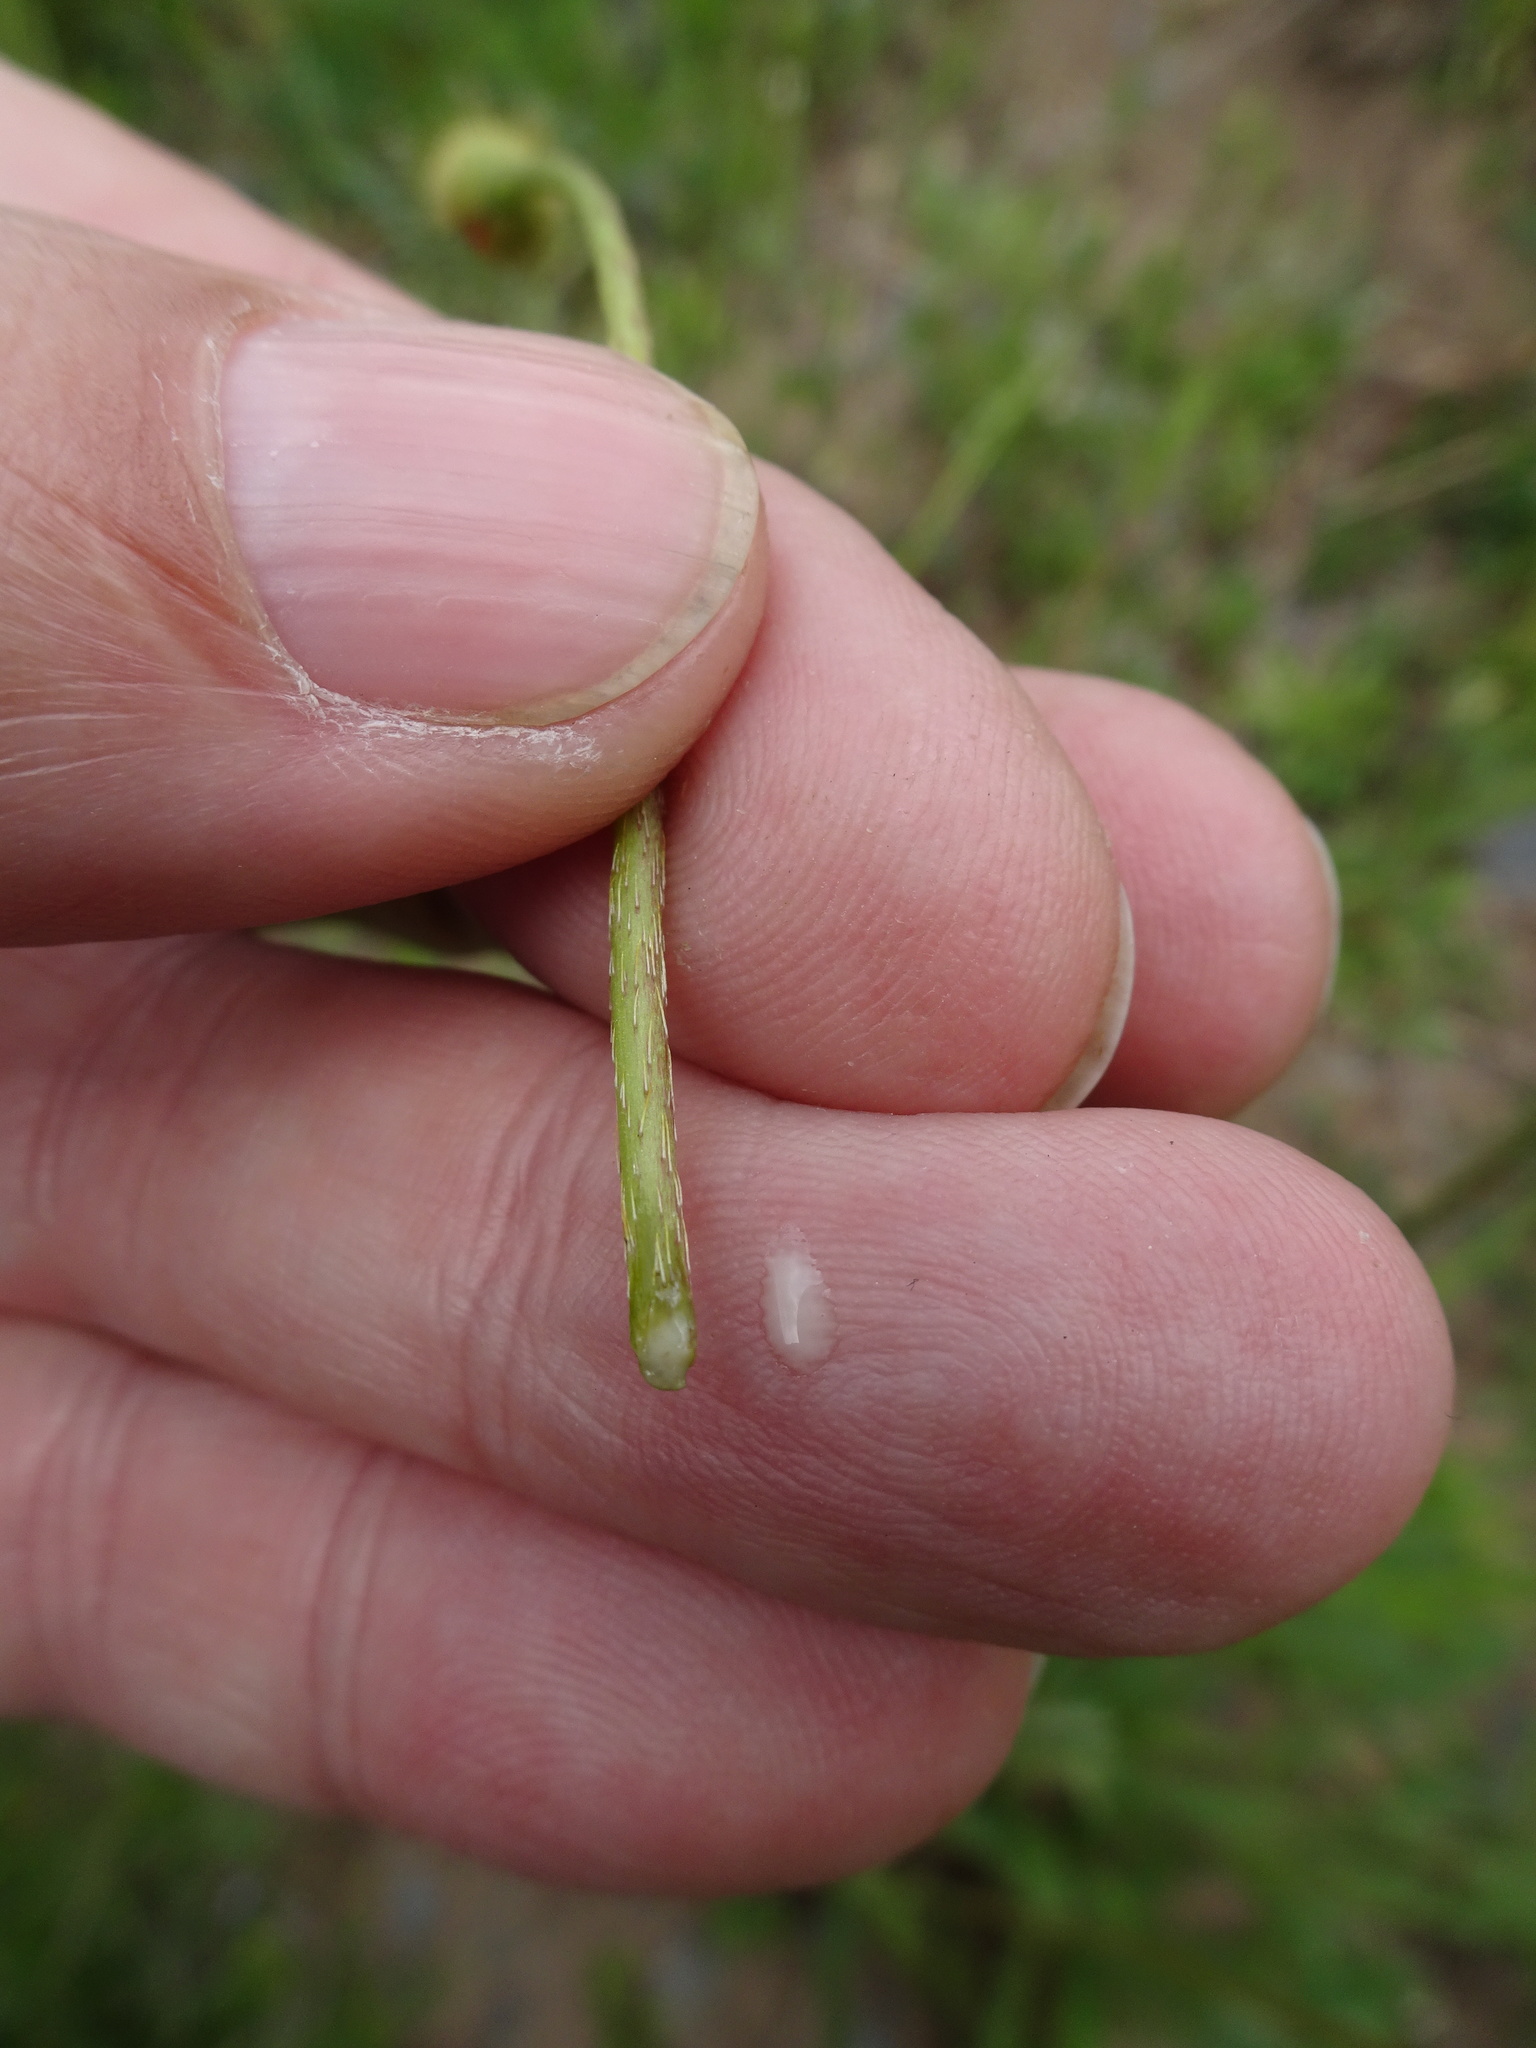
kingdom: Plantae
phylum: Tracheophyta
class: Magnoliopsida
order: Ranunculales
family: Papaveraceae
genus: Papaver
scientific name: Papaver dubium
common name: Long-headed poppy
